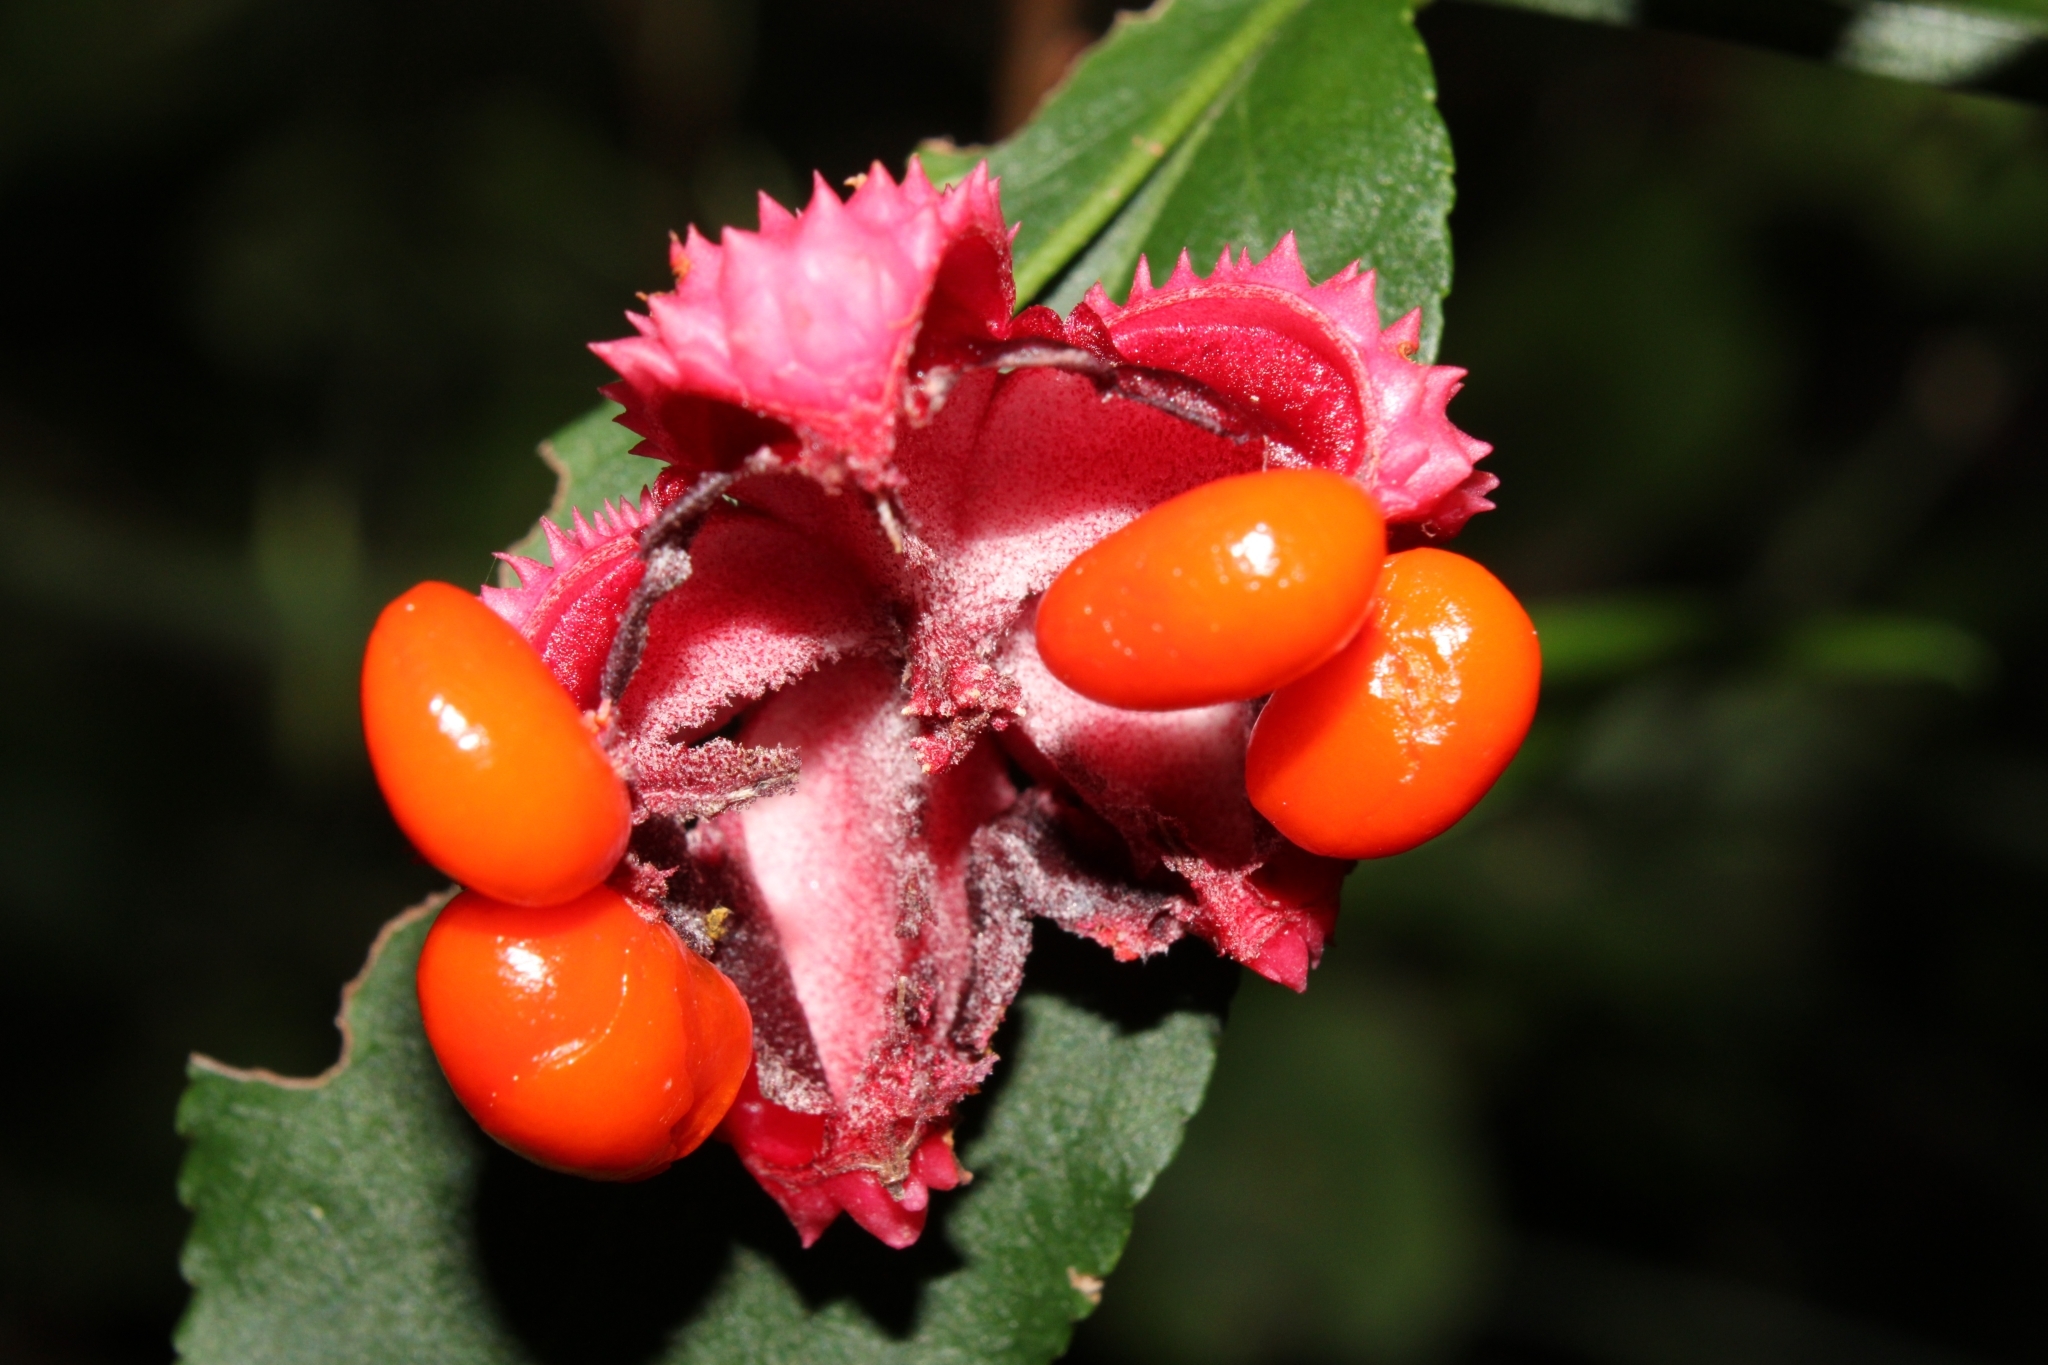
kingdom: Plantae
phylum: Tracheophyta
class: Magnoliopsida
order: Celastrales
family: Celastraceae
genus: Euonymus
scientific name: Euonymus americanus
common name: Bursting-heart
